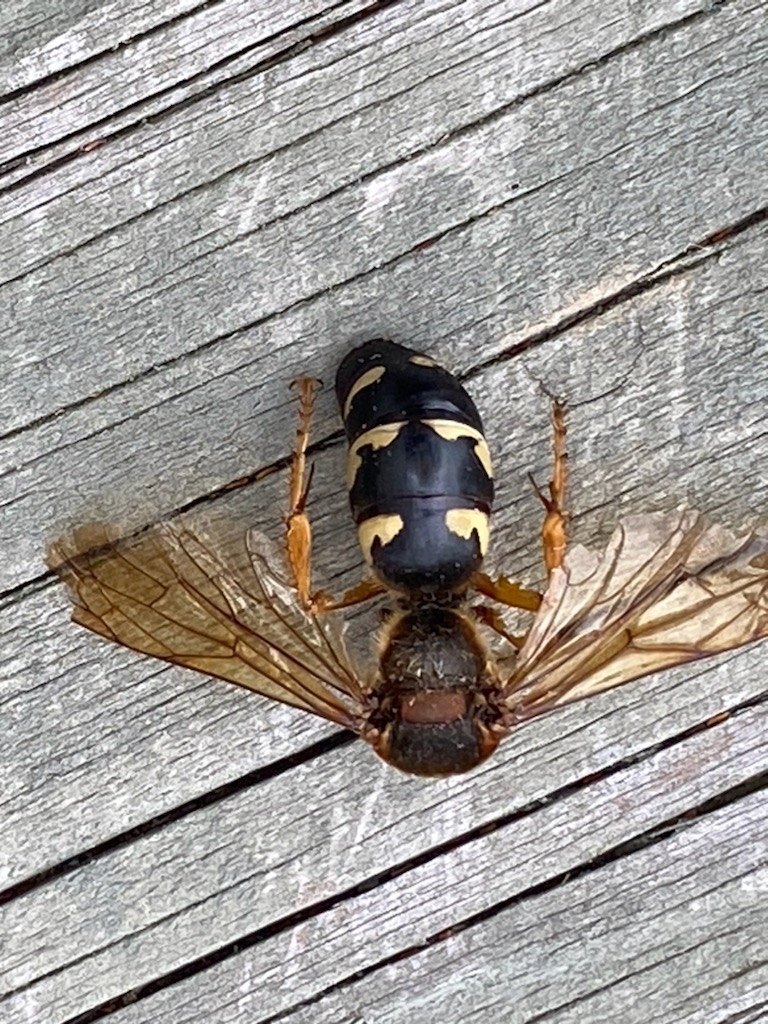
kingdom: Animalia
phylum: Arthropoda
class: Insecta
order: Hymenoptera
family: Crabronidae
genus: Sphecius
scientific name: Sphecius speciosus
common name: Cicada killer
